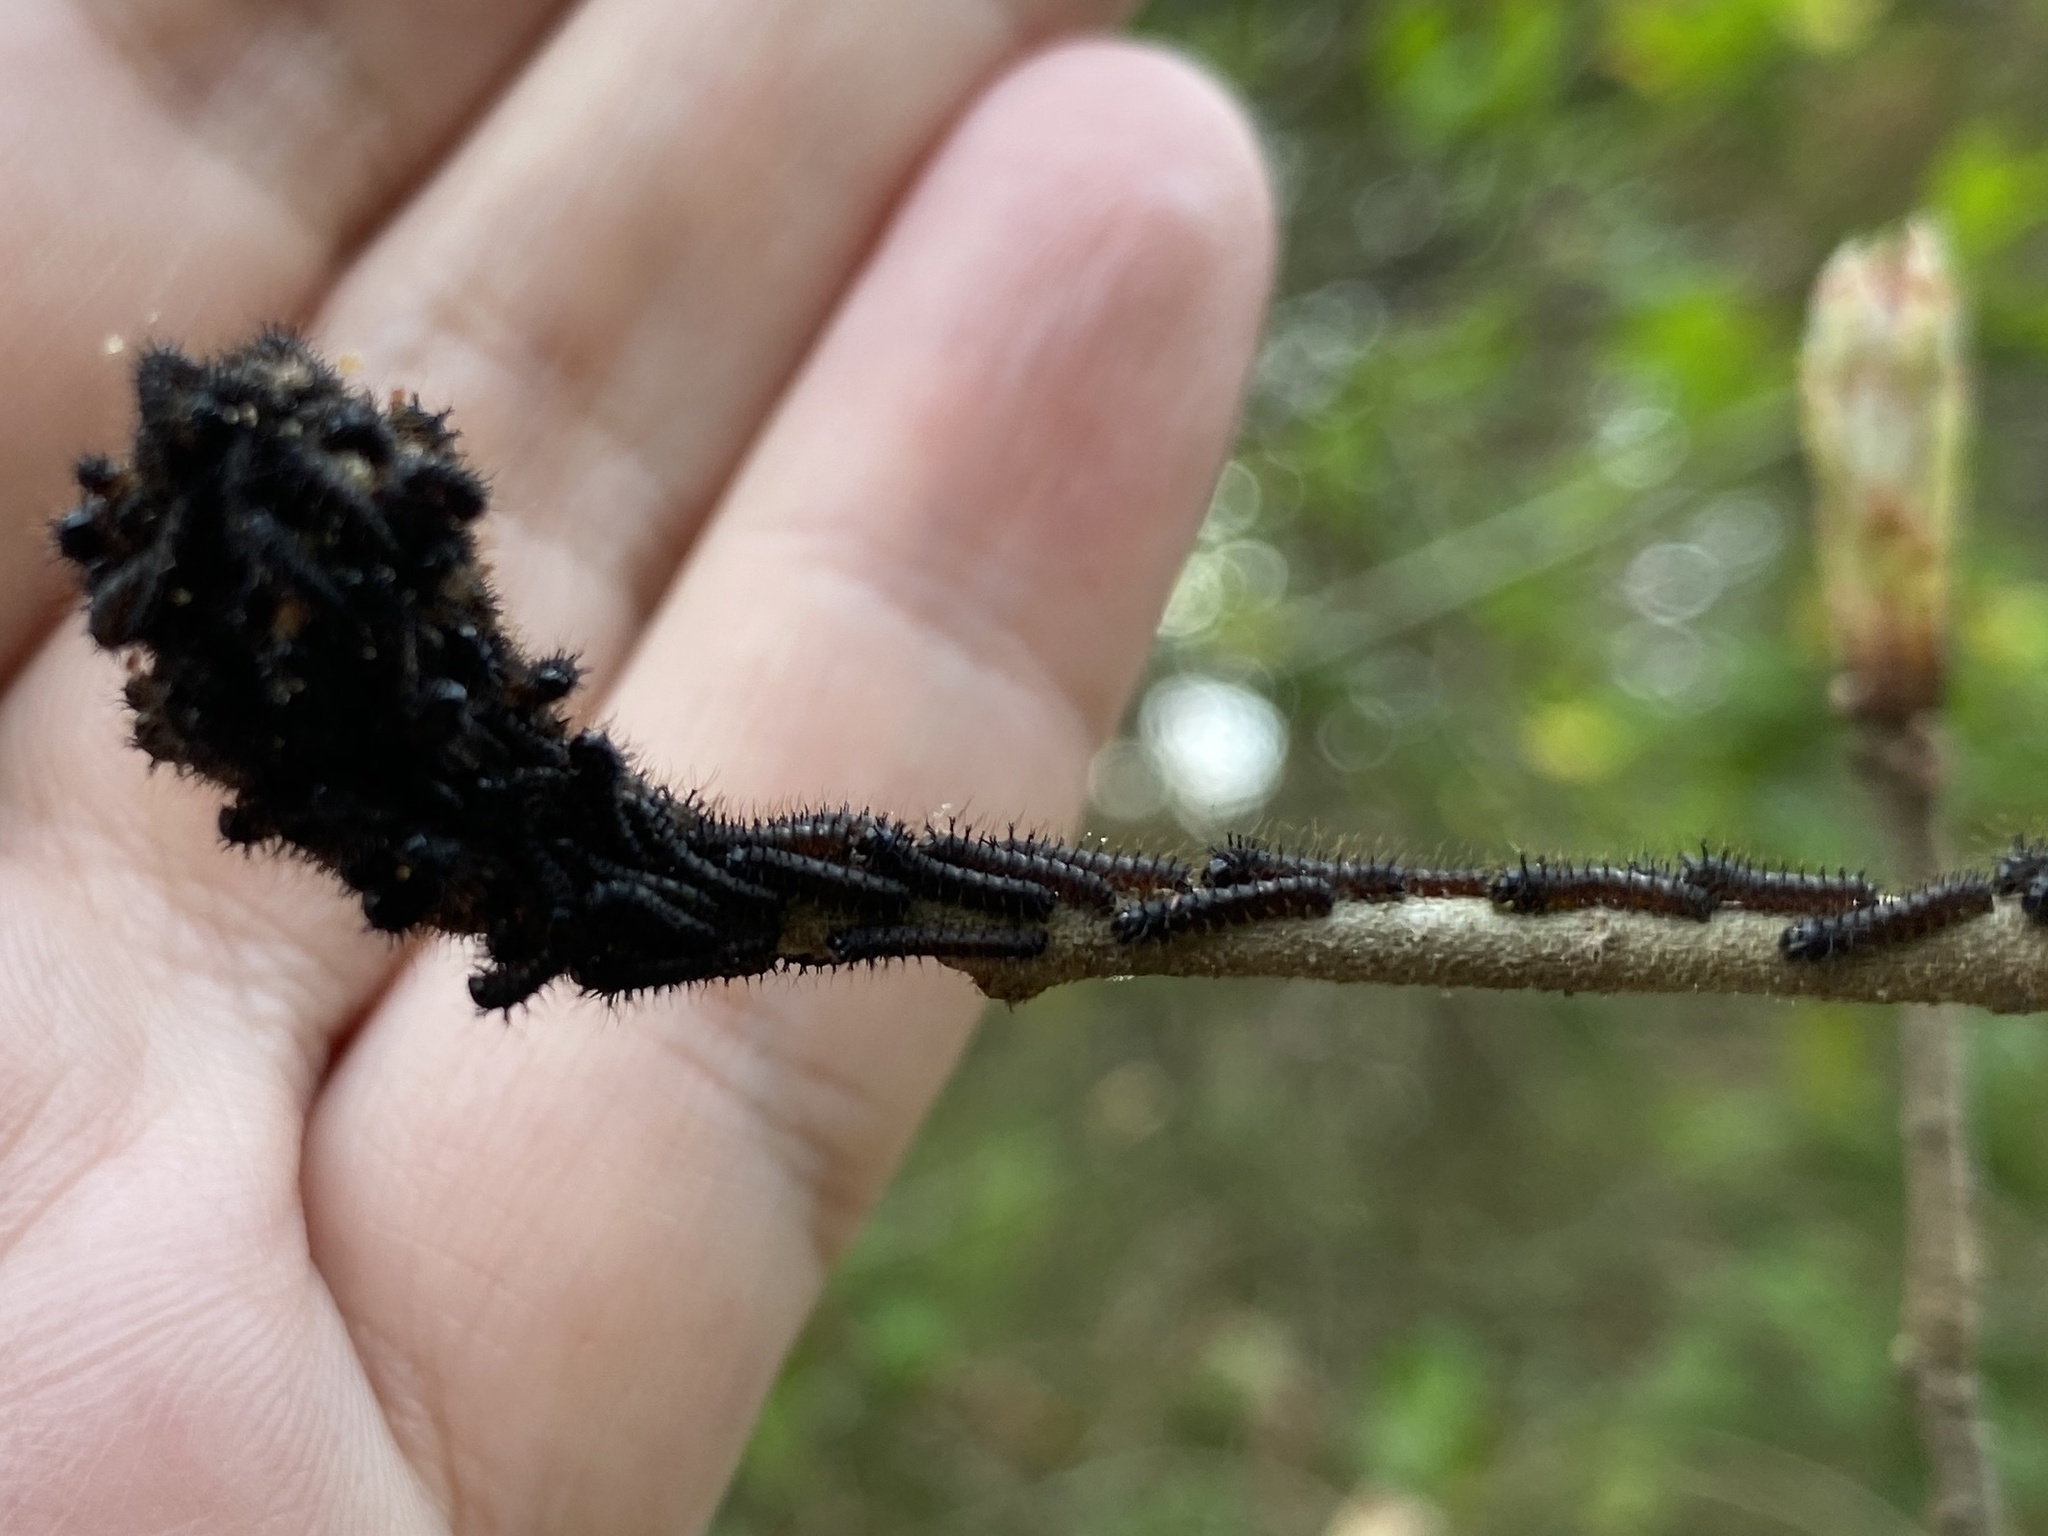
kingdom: Animalia
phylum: Arthropoda
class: Insecta
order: Lepidoptera
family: Saturniidae
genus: Hemileuca
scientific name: Hemileuca maia
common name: Eastern buckmoth
